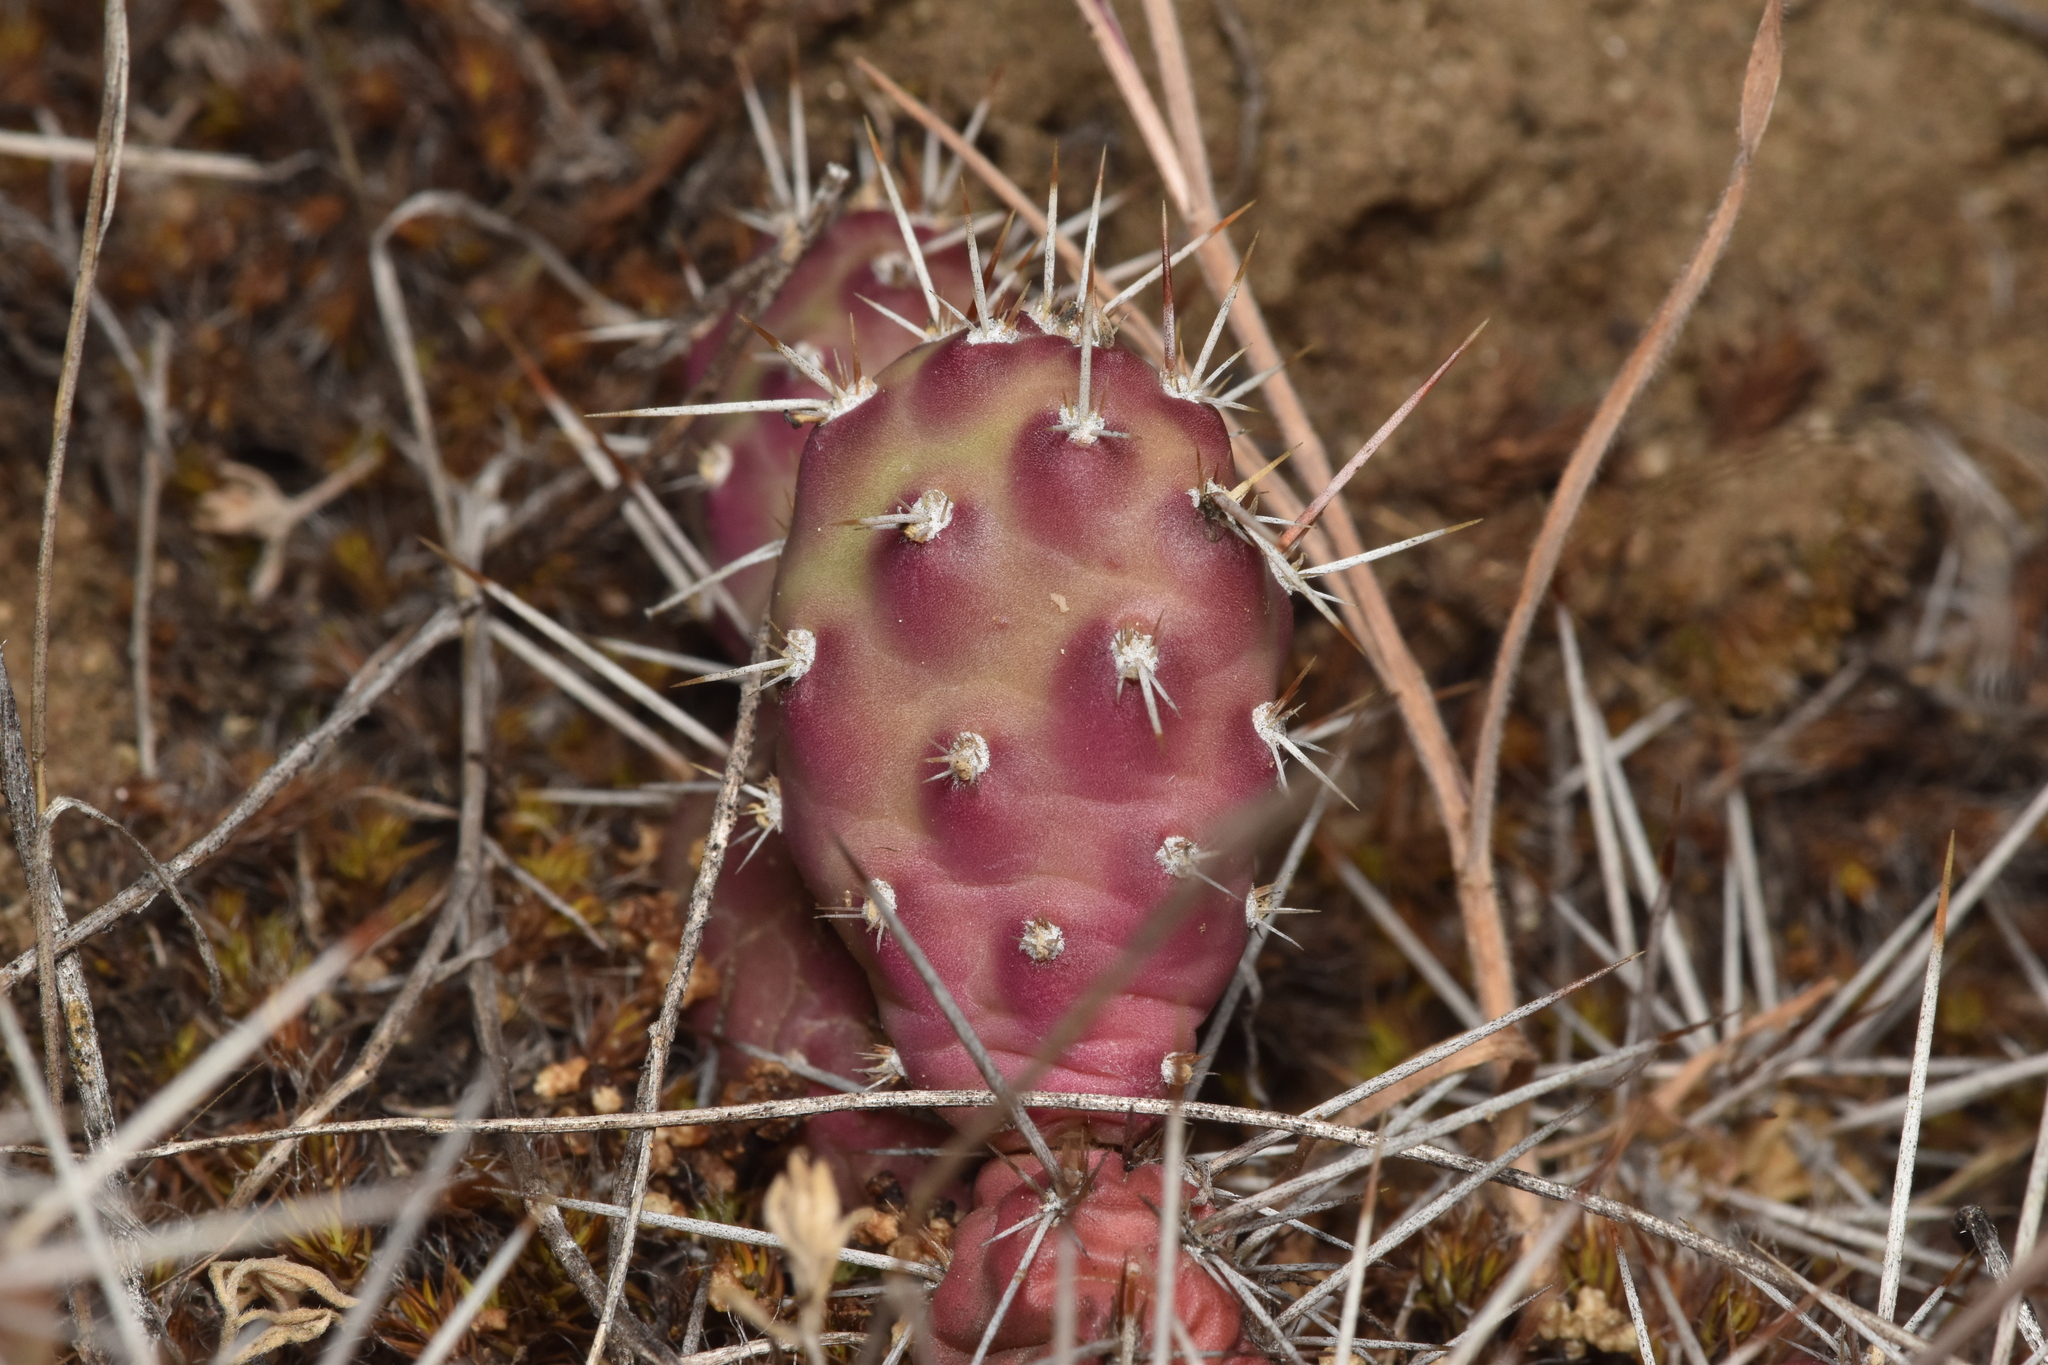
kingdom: Plantae
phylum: Tracheophyta
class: Magnoliopsida
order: Caryophyllales
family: Cactaceae
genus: Opuntia
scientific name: Opuntia fragilis
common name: Brittle cactus
